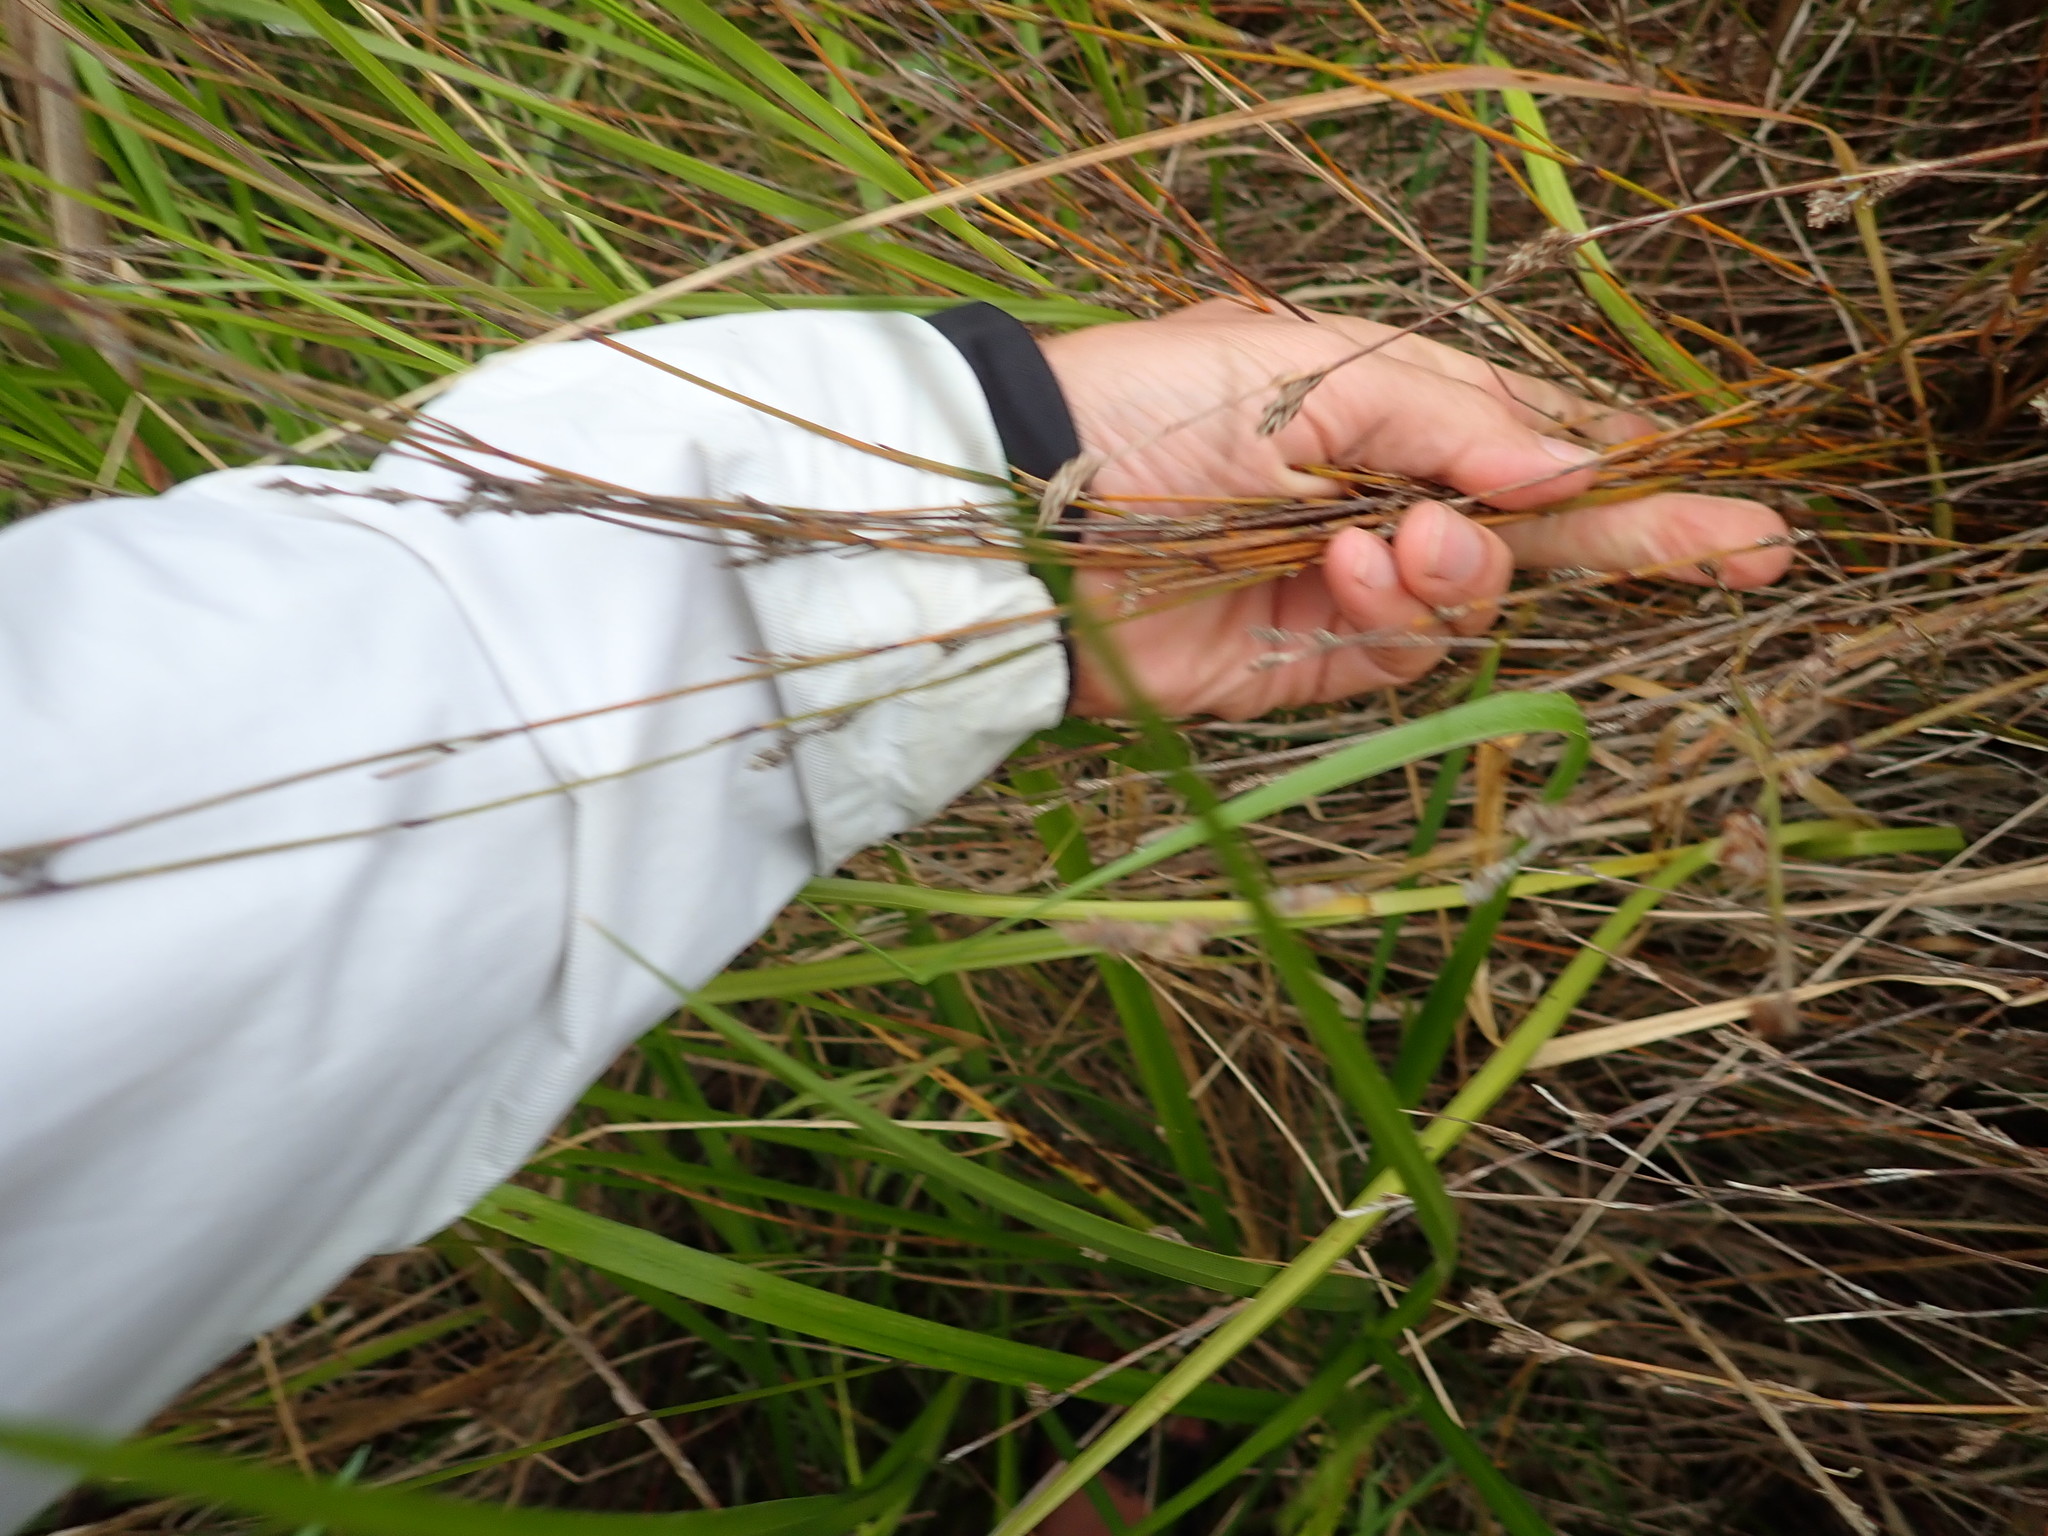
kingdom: Plantae
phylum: Tracheophyta
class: Liliopsida
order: Poales
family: Restionaceae
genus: Apodasmia
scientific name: Apodasmia similis
